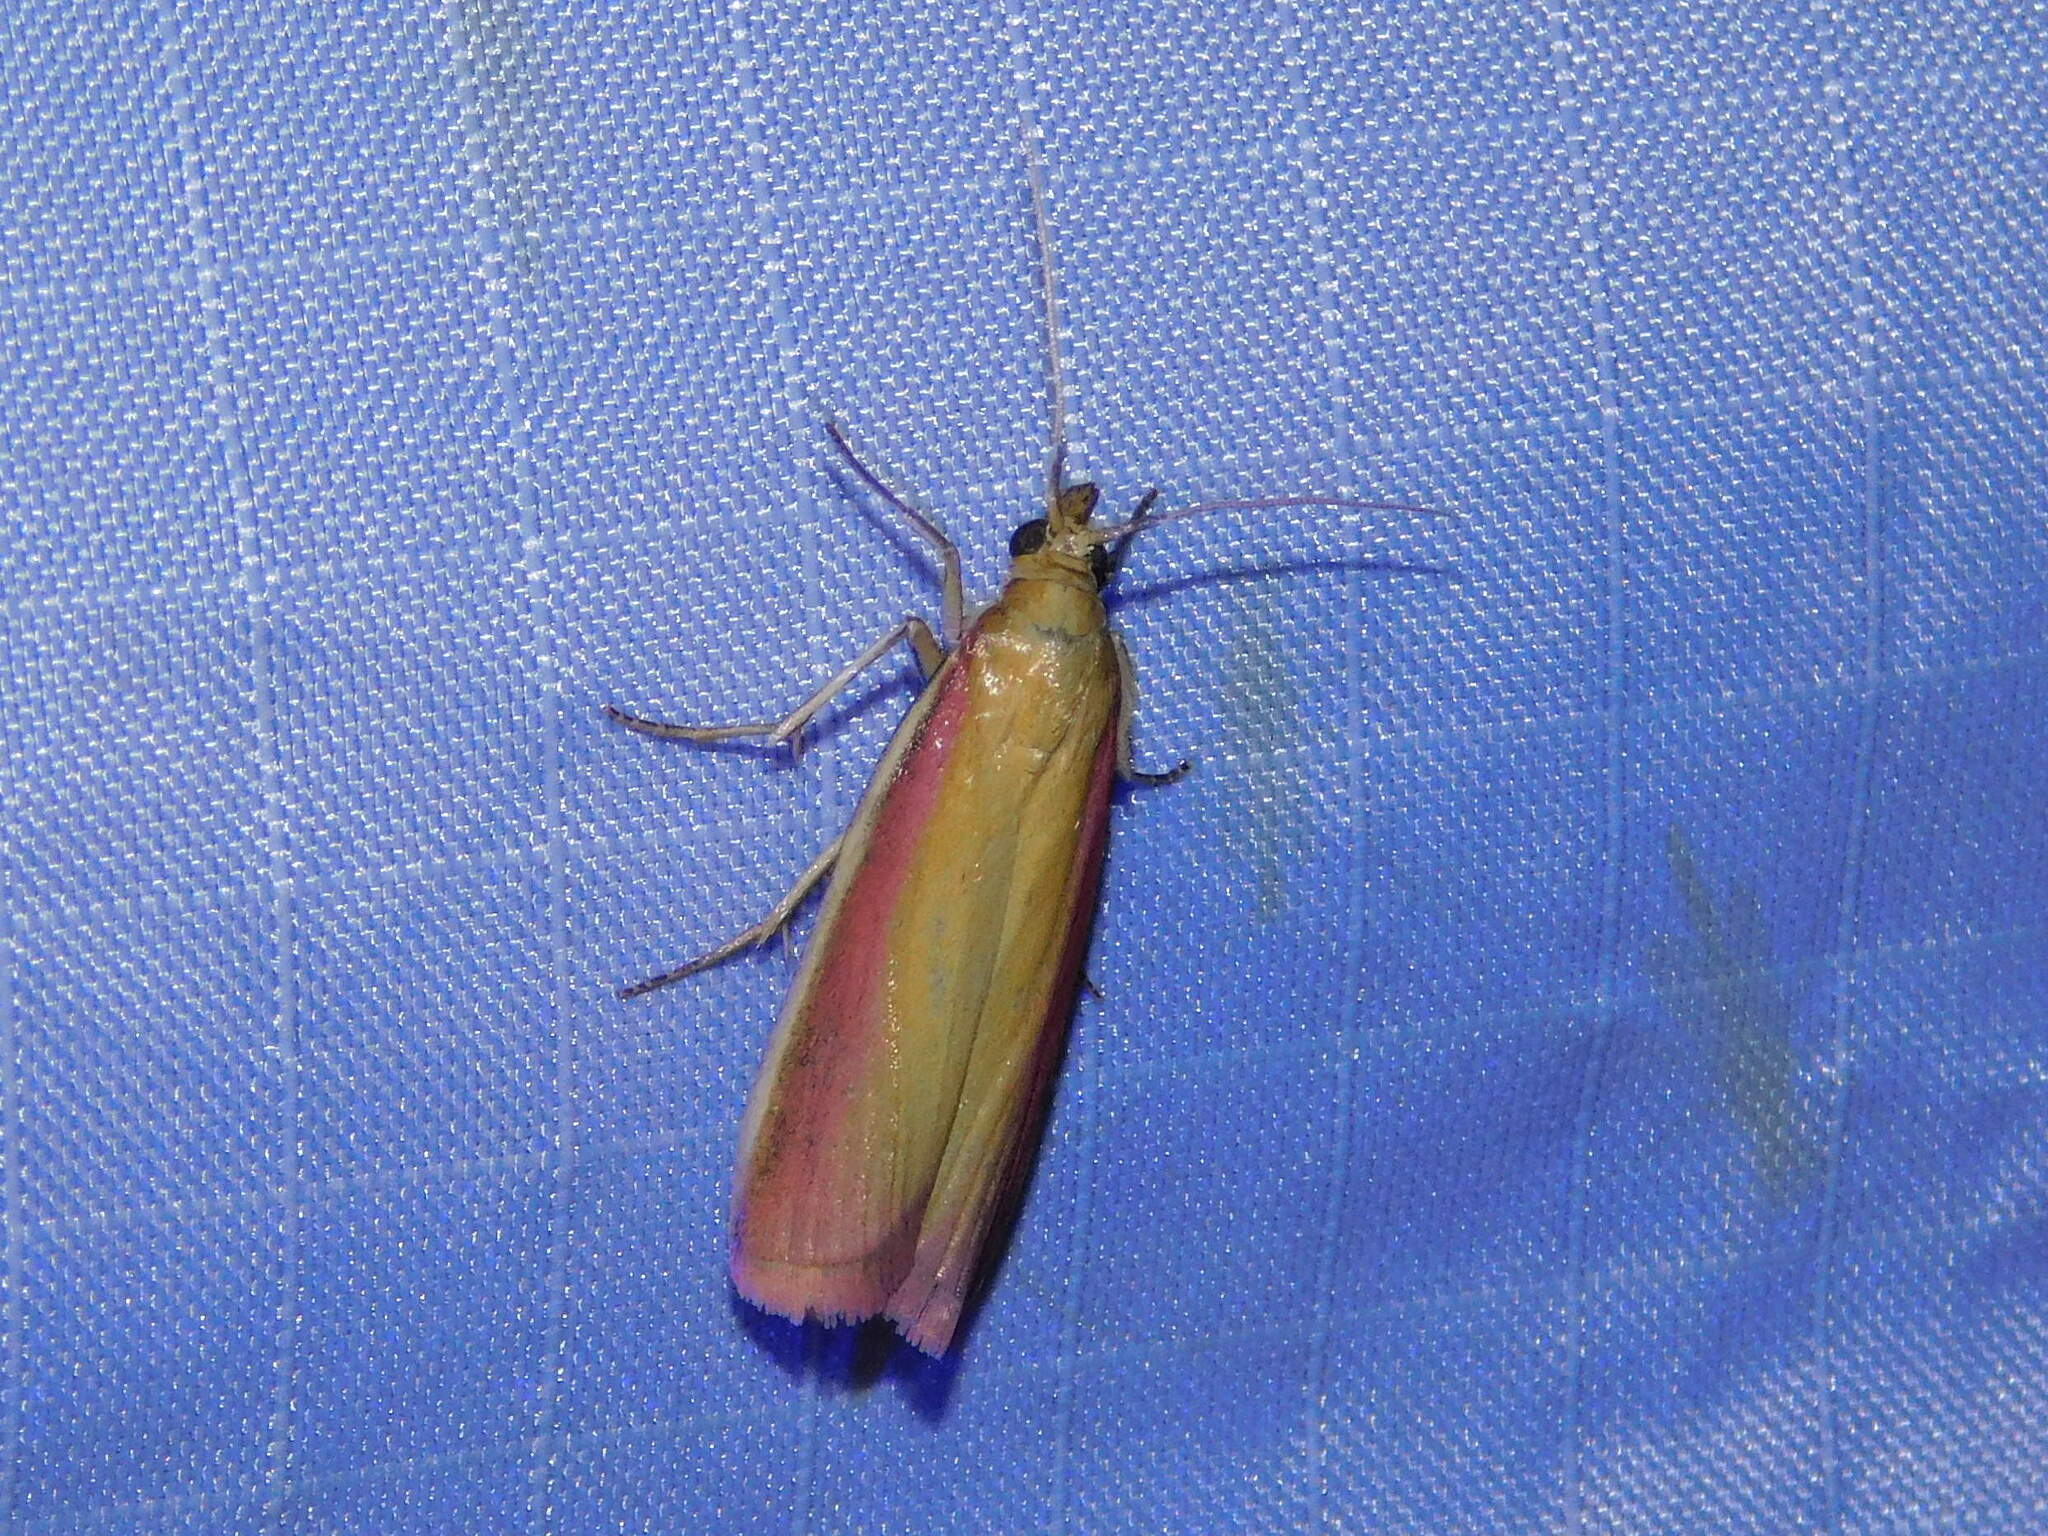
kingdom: Animalia
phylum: Arthropoda
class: Insecta
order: Lepidoptera
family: Pyralidae
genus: Oncocera
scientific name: Oncocera semirubella
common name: Rosy-striped knot-horn
